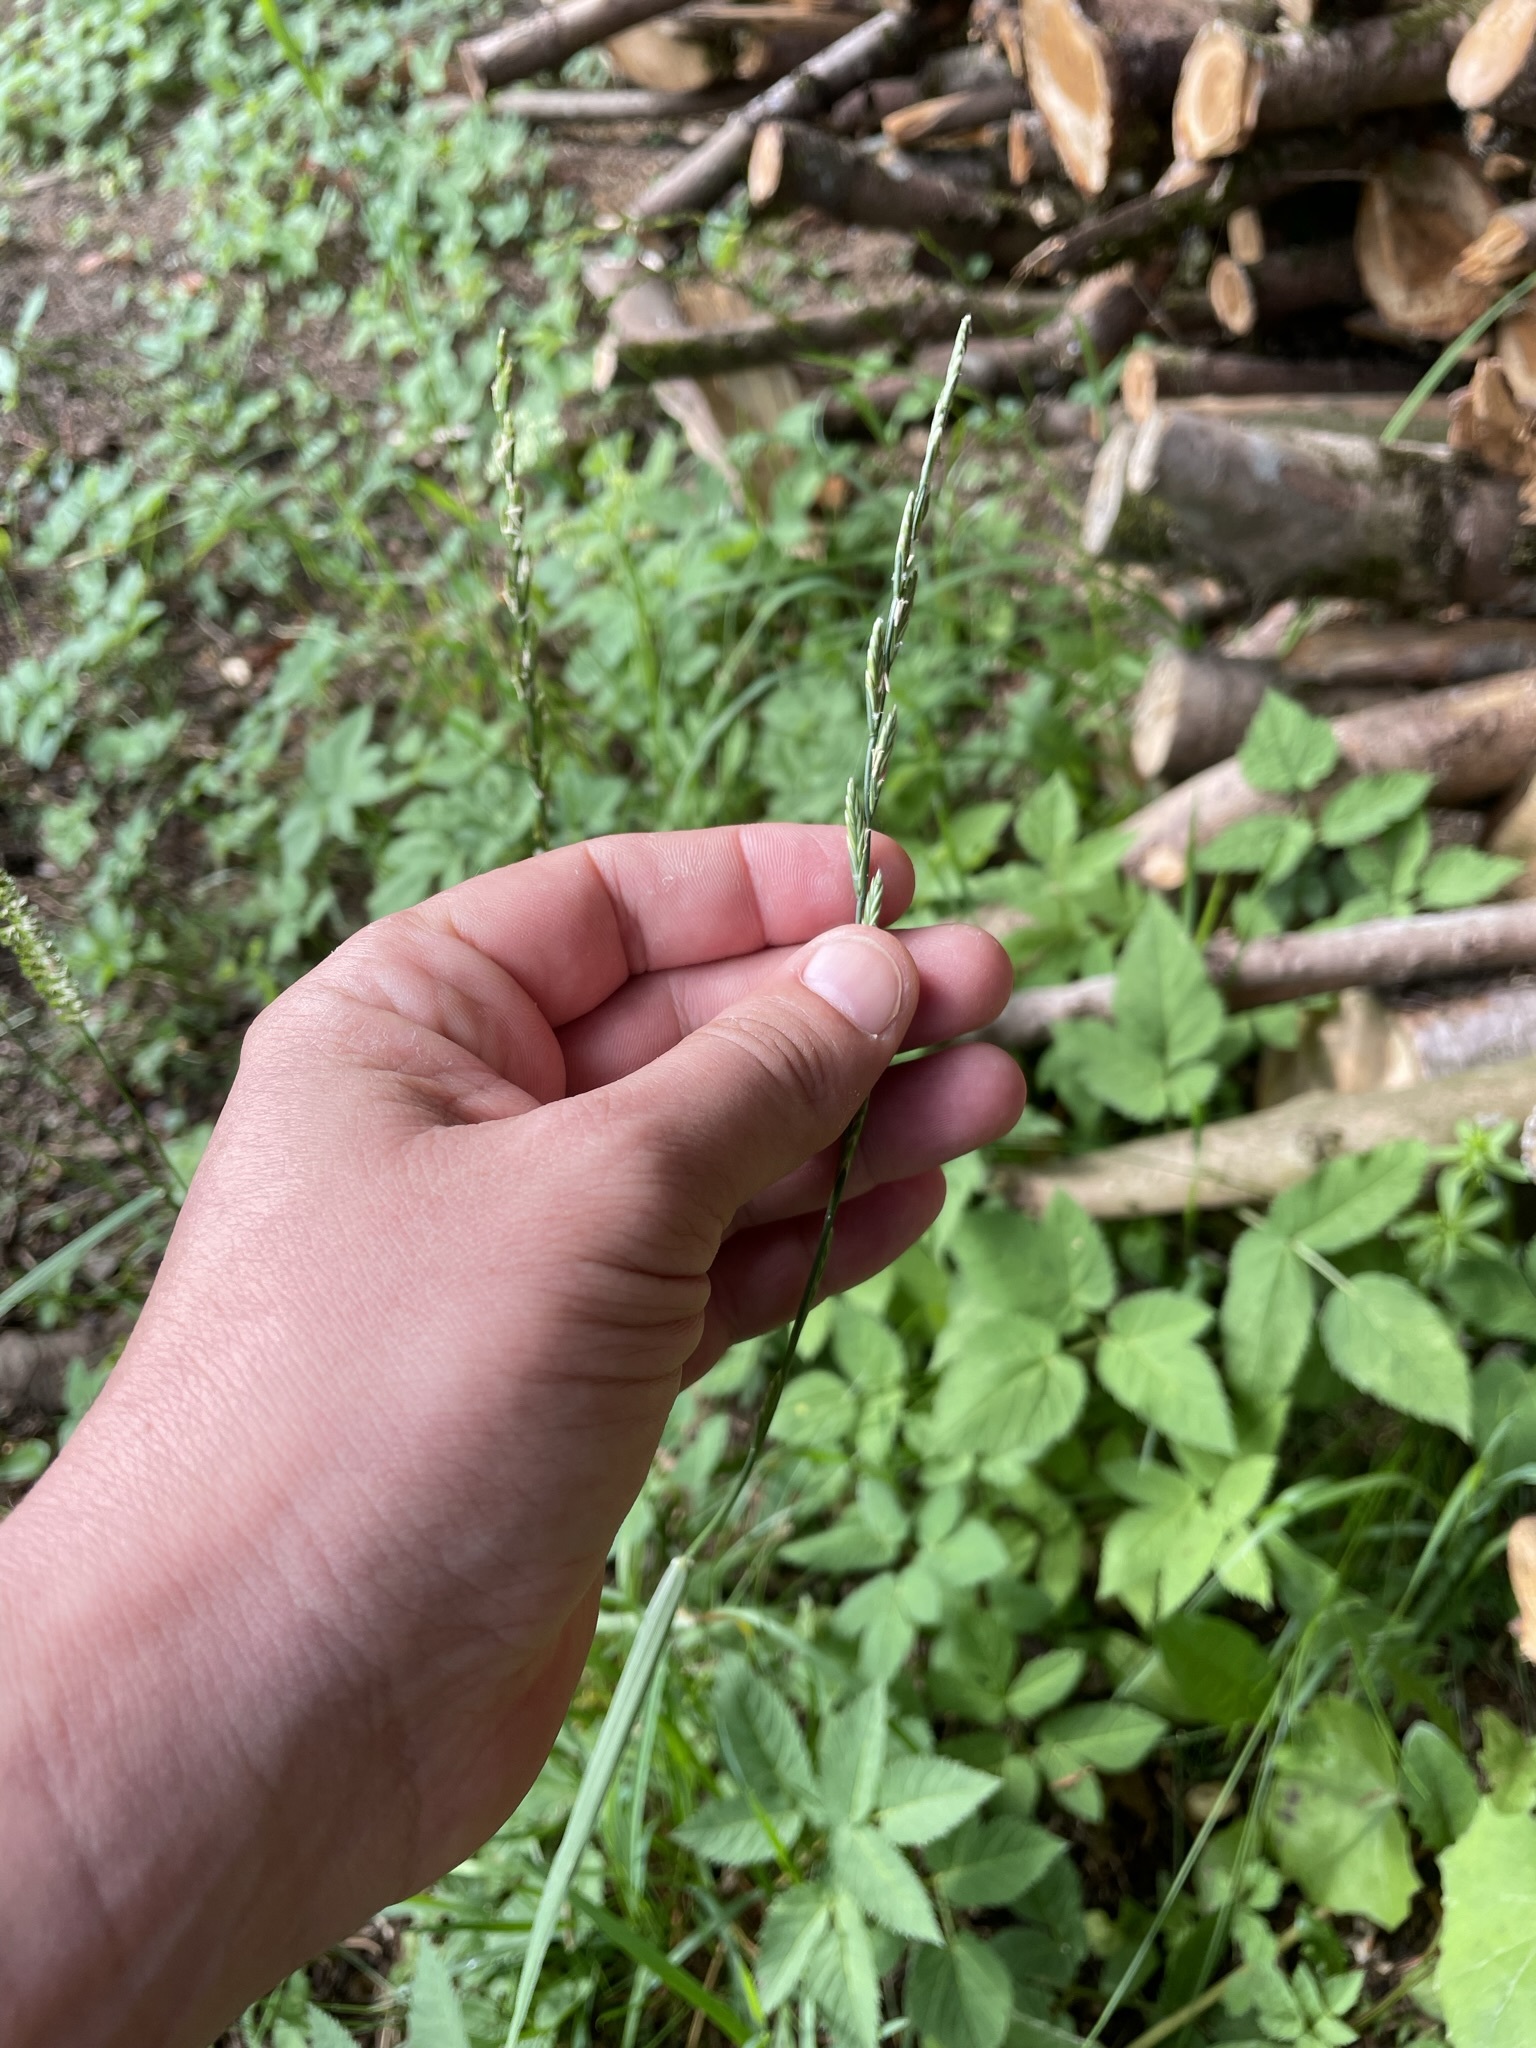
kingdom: Plantae
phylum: Tracheophyta
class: Liliopsida
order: Poales
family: Poaceae
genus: Lolium
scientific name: Lolium perenne
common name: Perennial ryegrass
